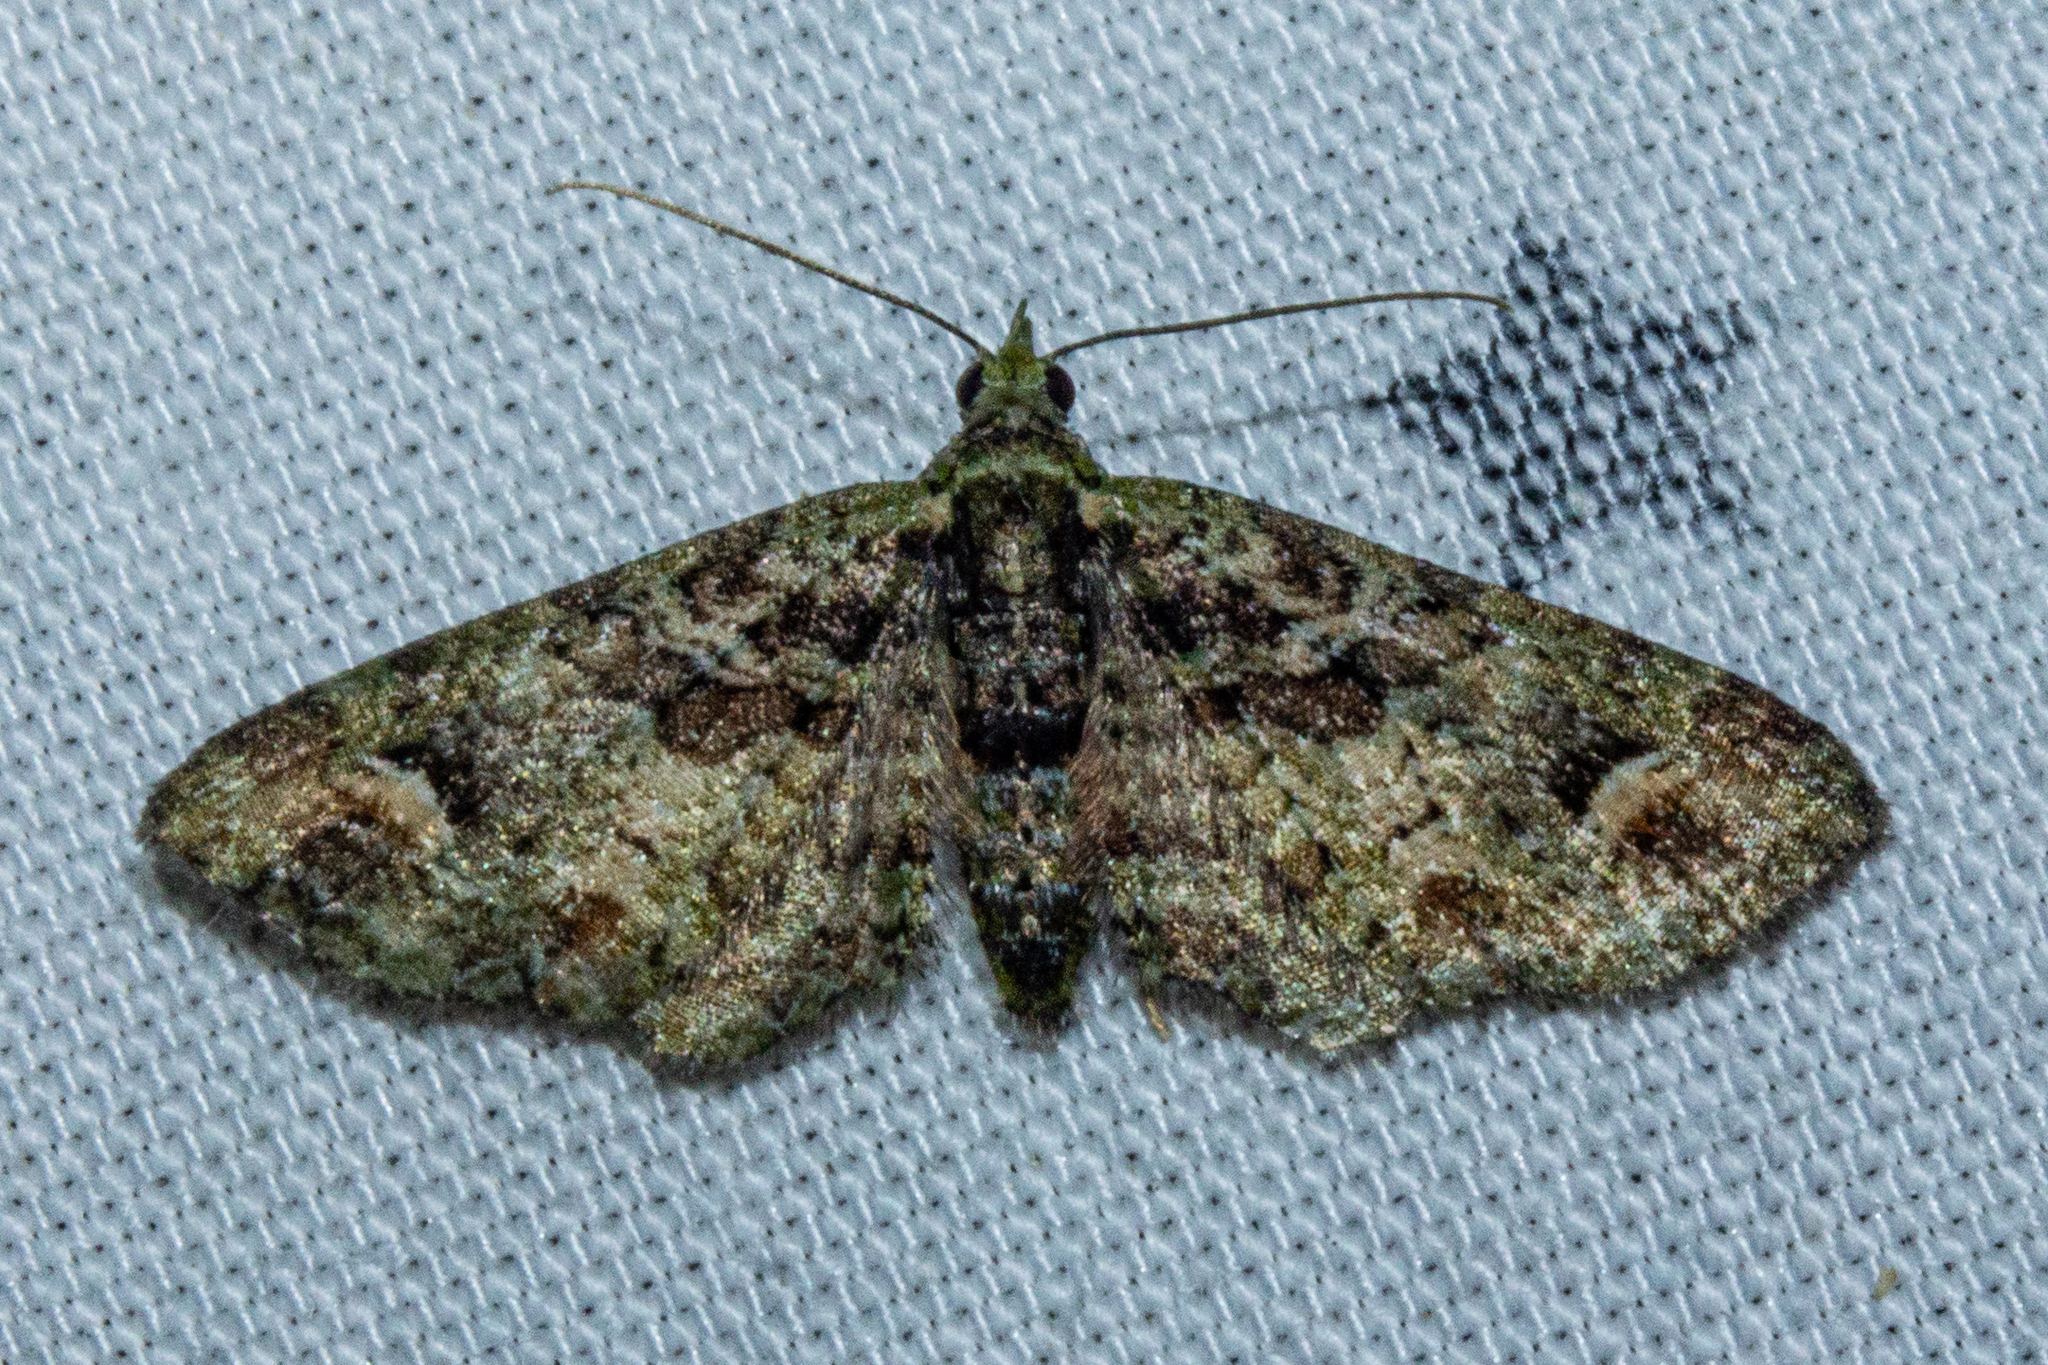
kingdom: Animalia
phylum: Arthropoda
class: Insecta
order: Lepidoptera
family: Geometridae
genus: Idaea
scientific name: Idaea mutanda
